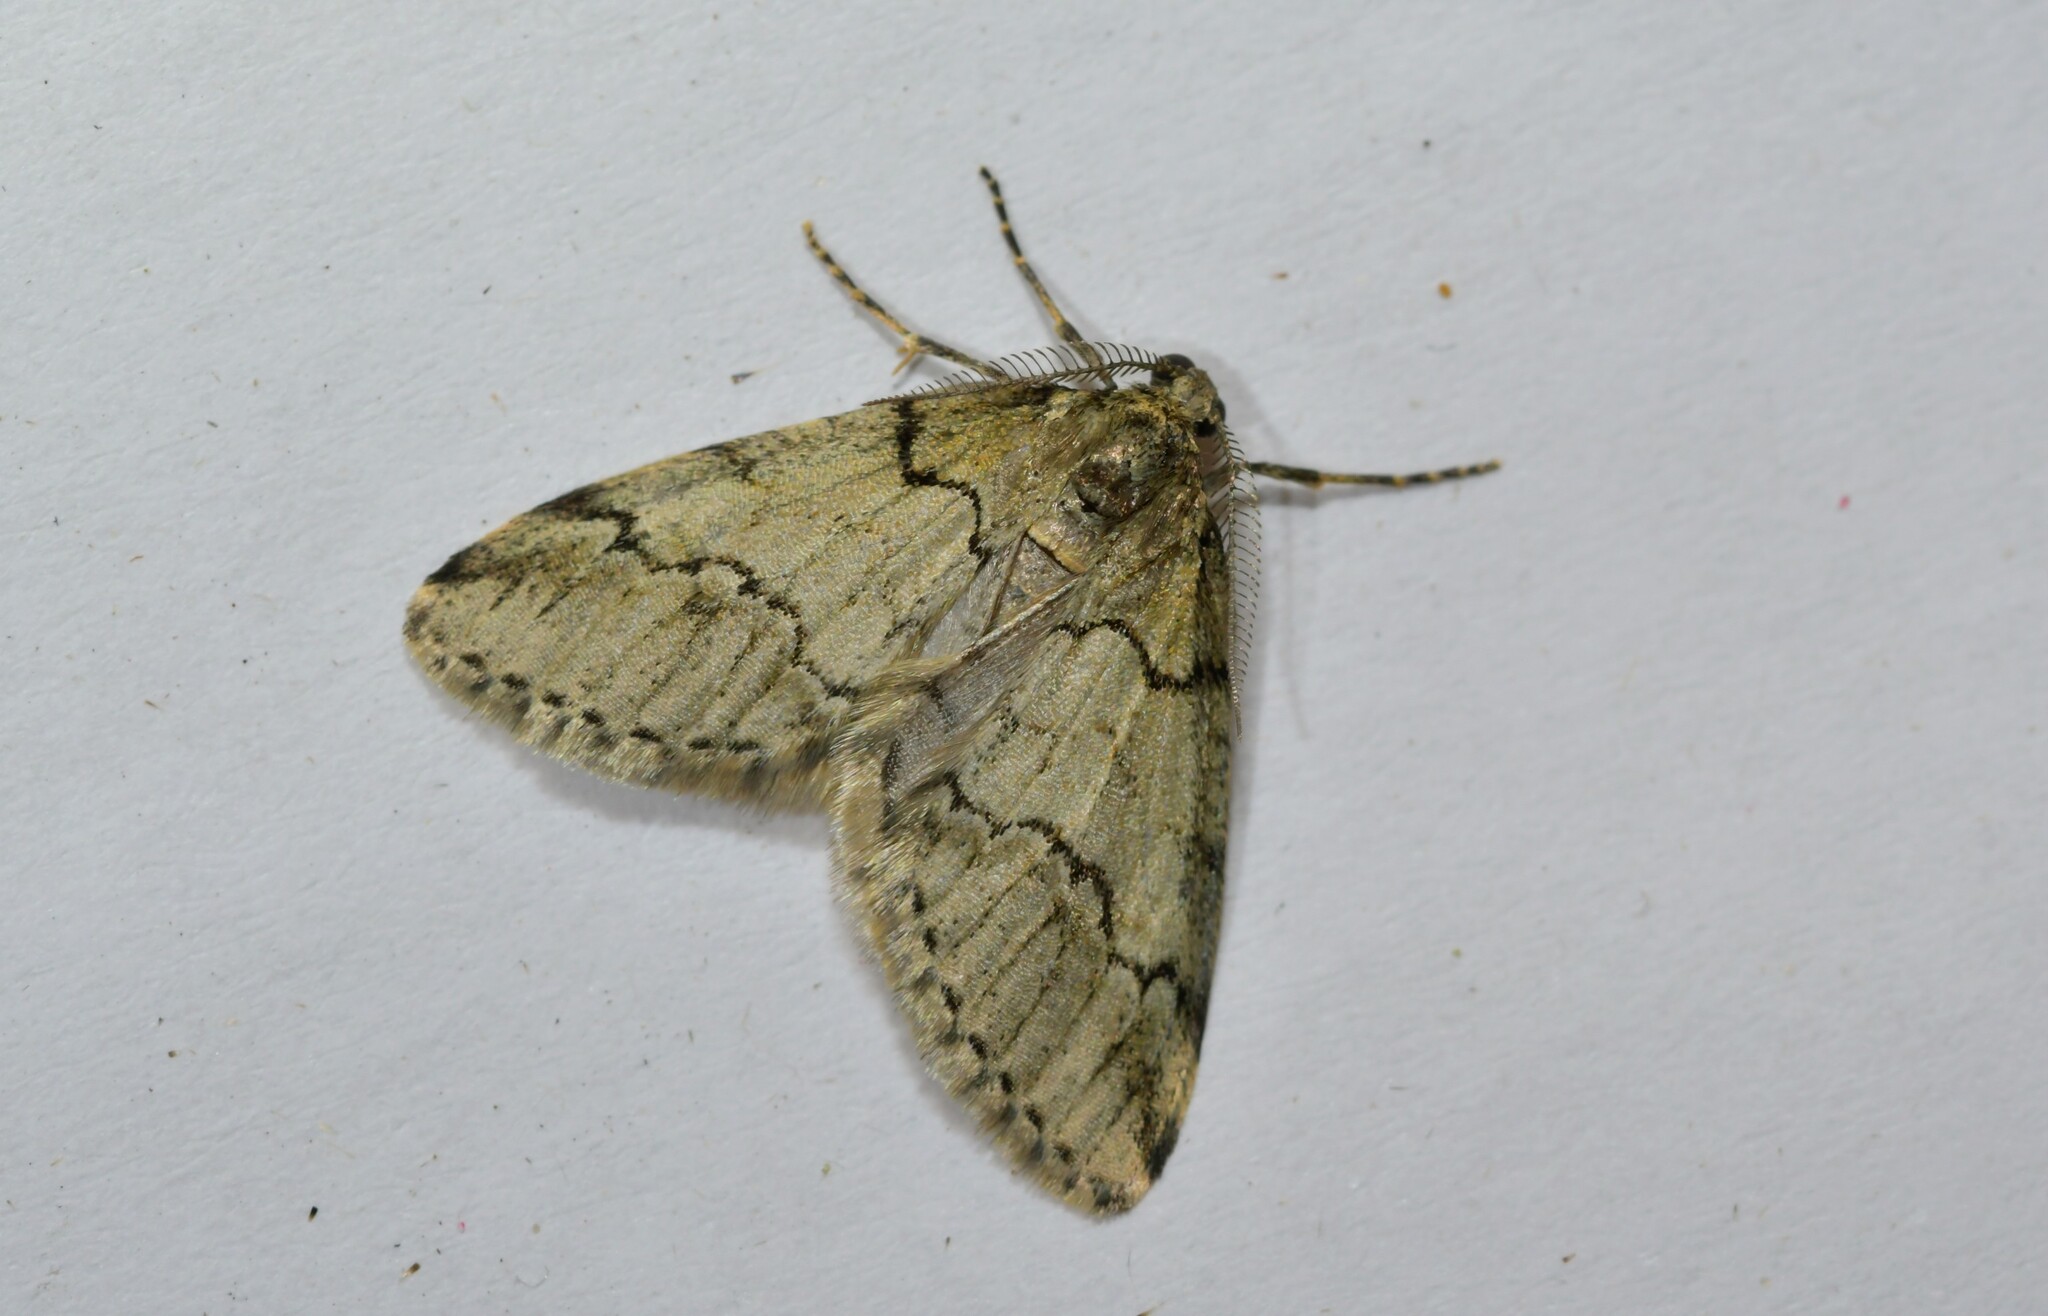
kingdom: Animalia
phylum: Arthropoda
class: Insecta
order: Lepidoptera
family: Geometridae
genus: Tephronia
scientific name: Tephronia lhommaria
